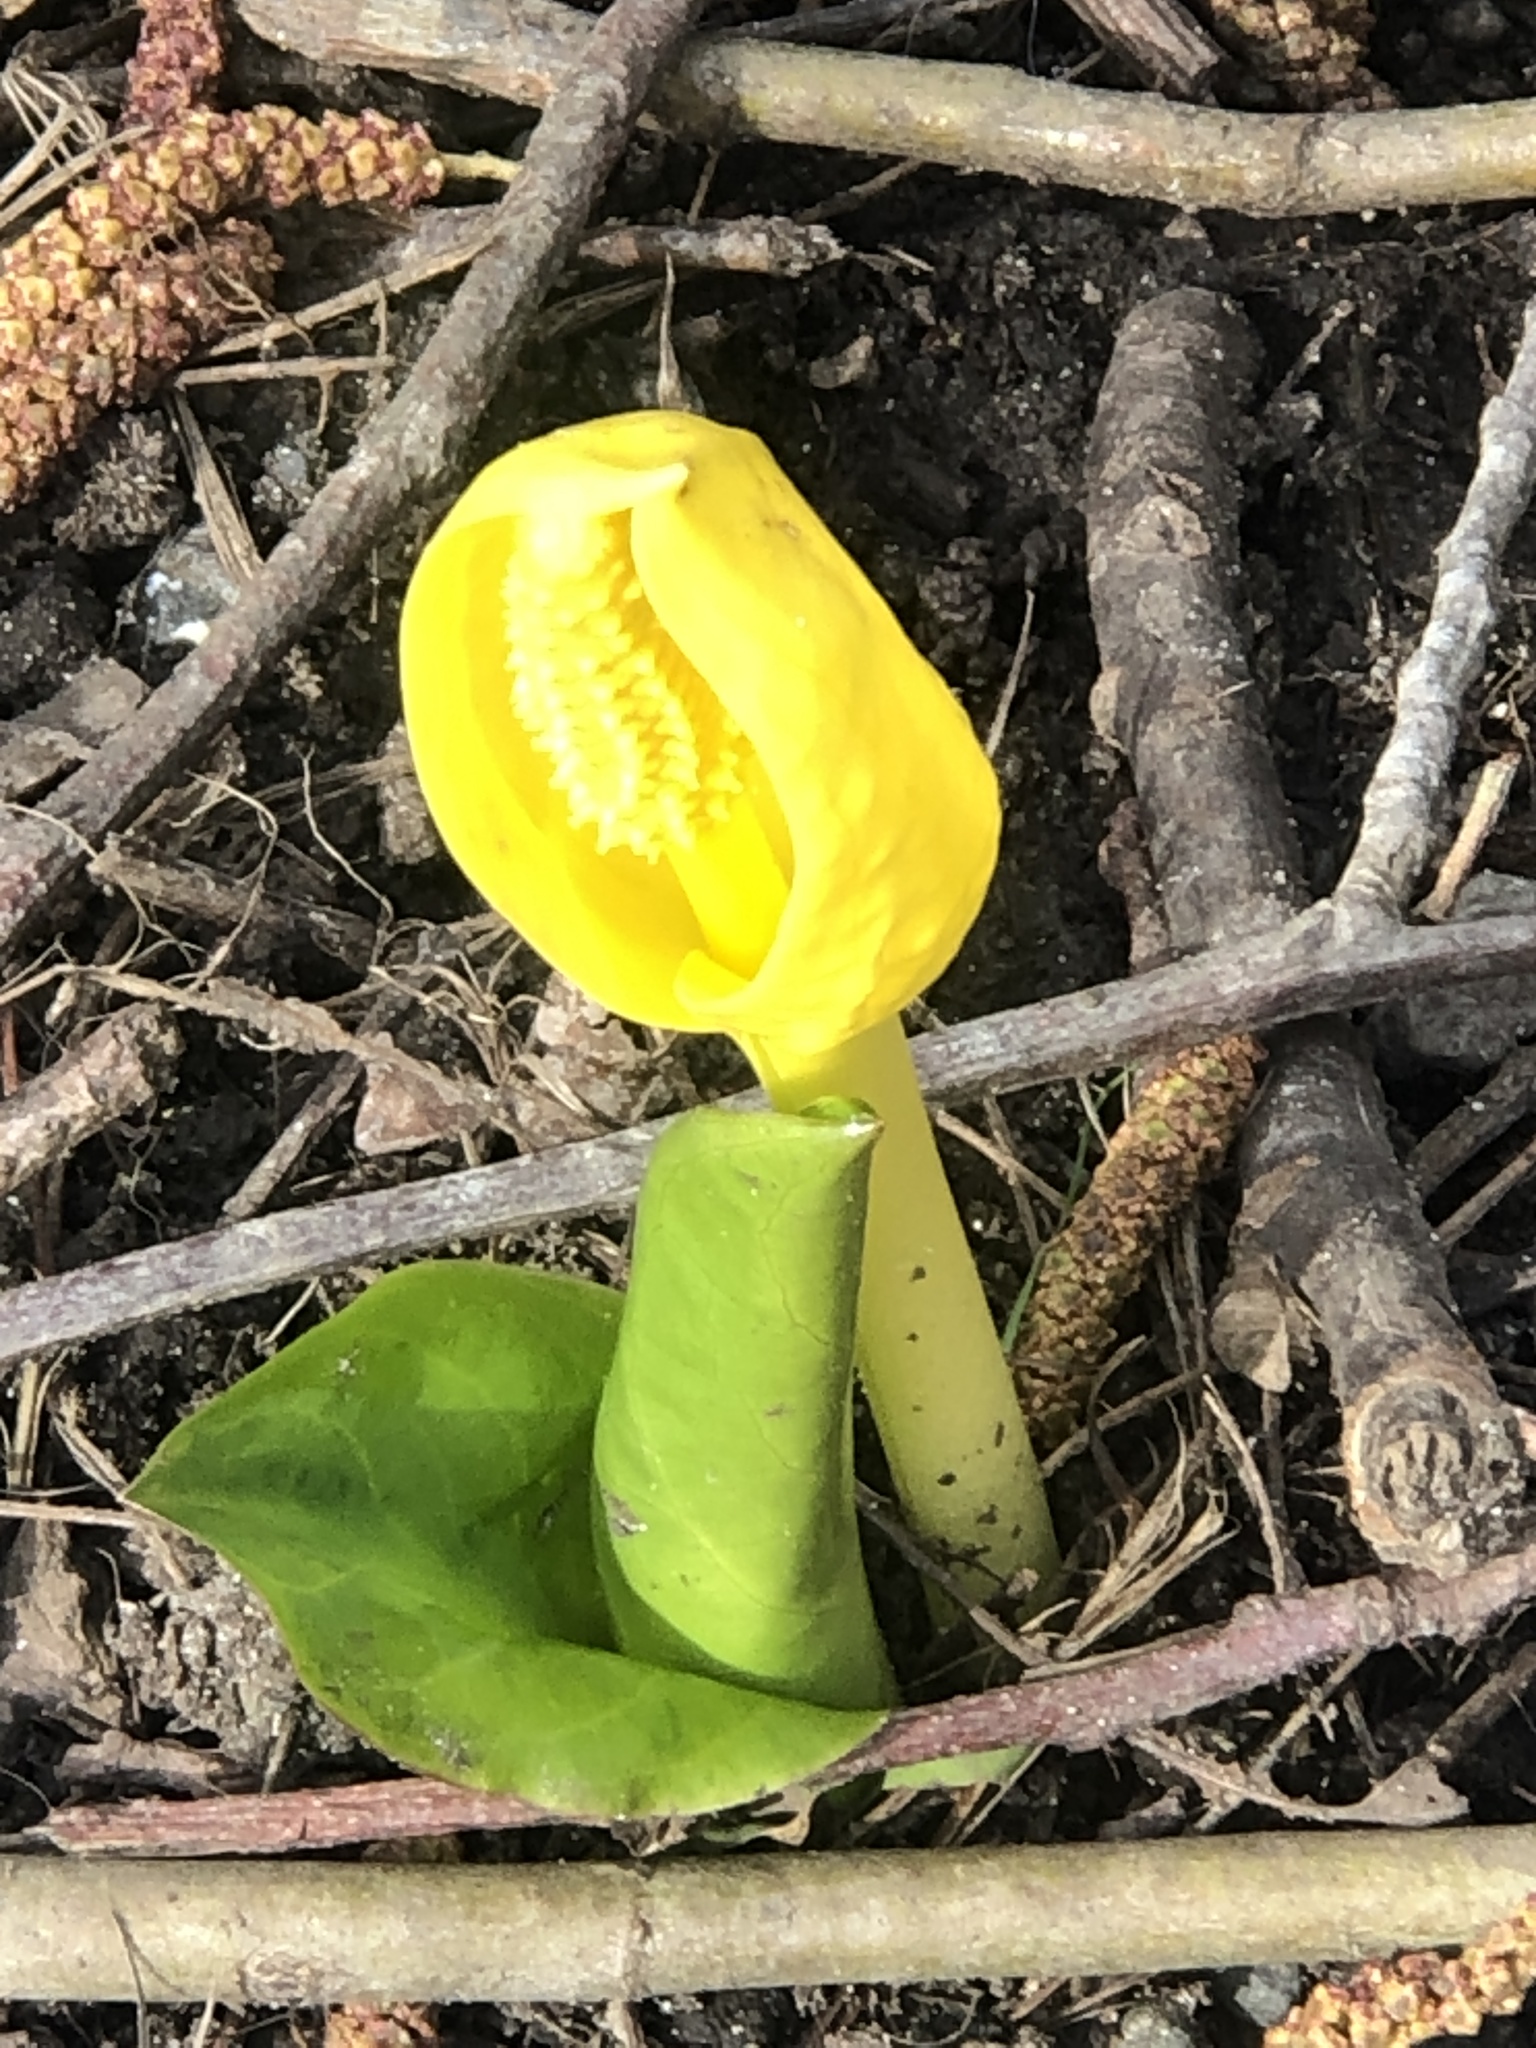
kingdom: Plantae
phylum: Tracheophyta
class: Liliopsida
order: Alismatales
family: Araceae
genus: Lysichiton
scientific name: Lysichiton americanus
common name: American skunk cabbage
